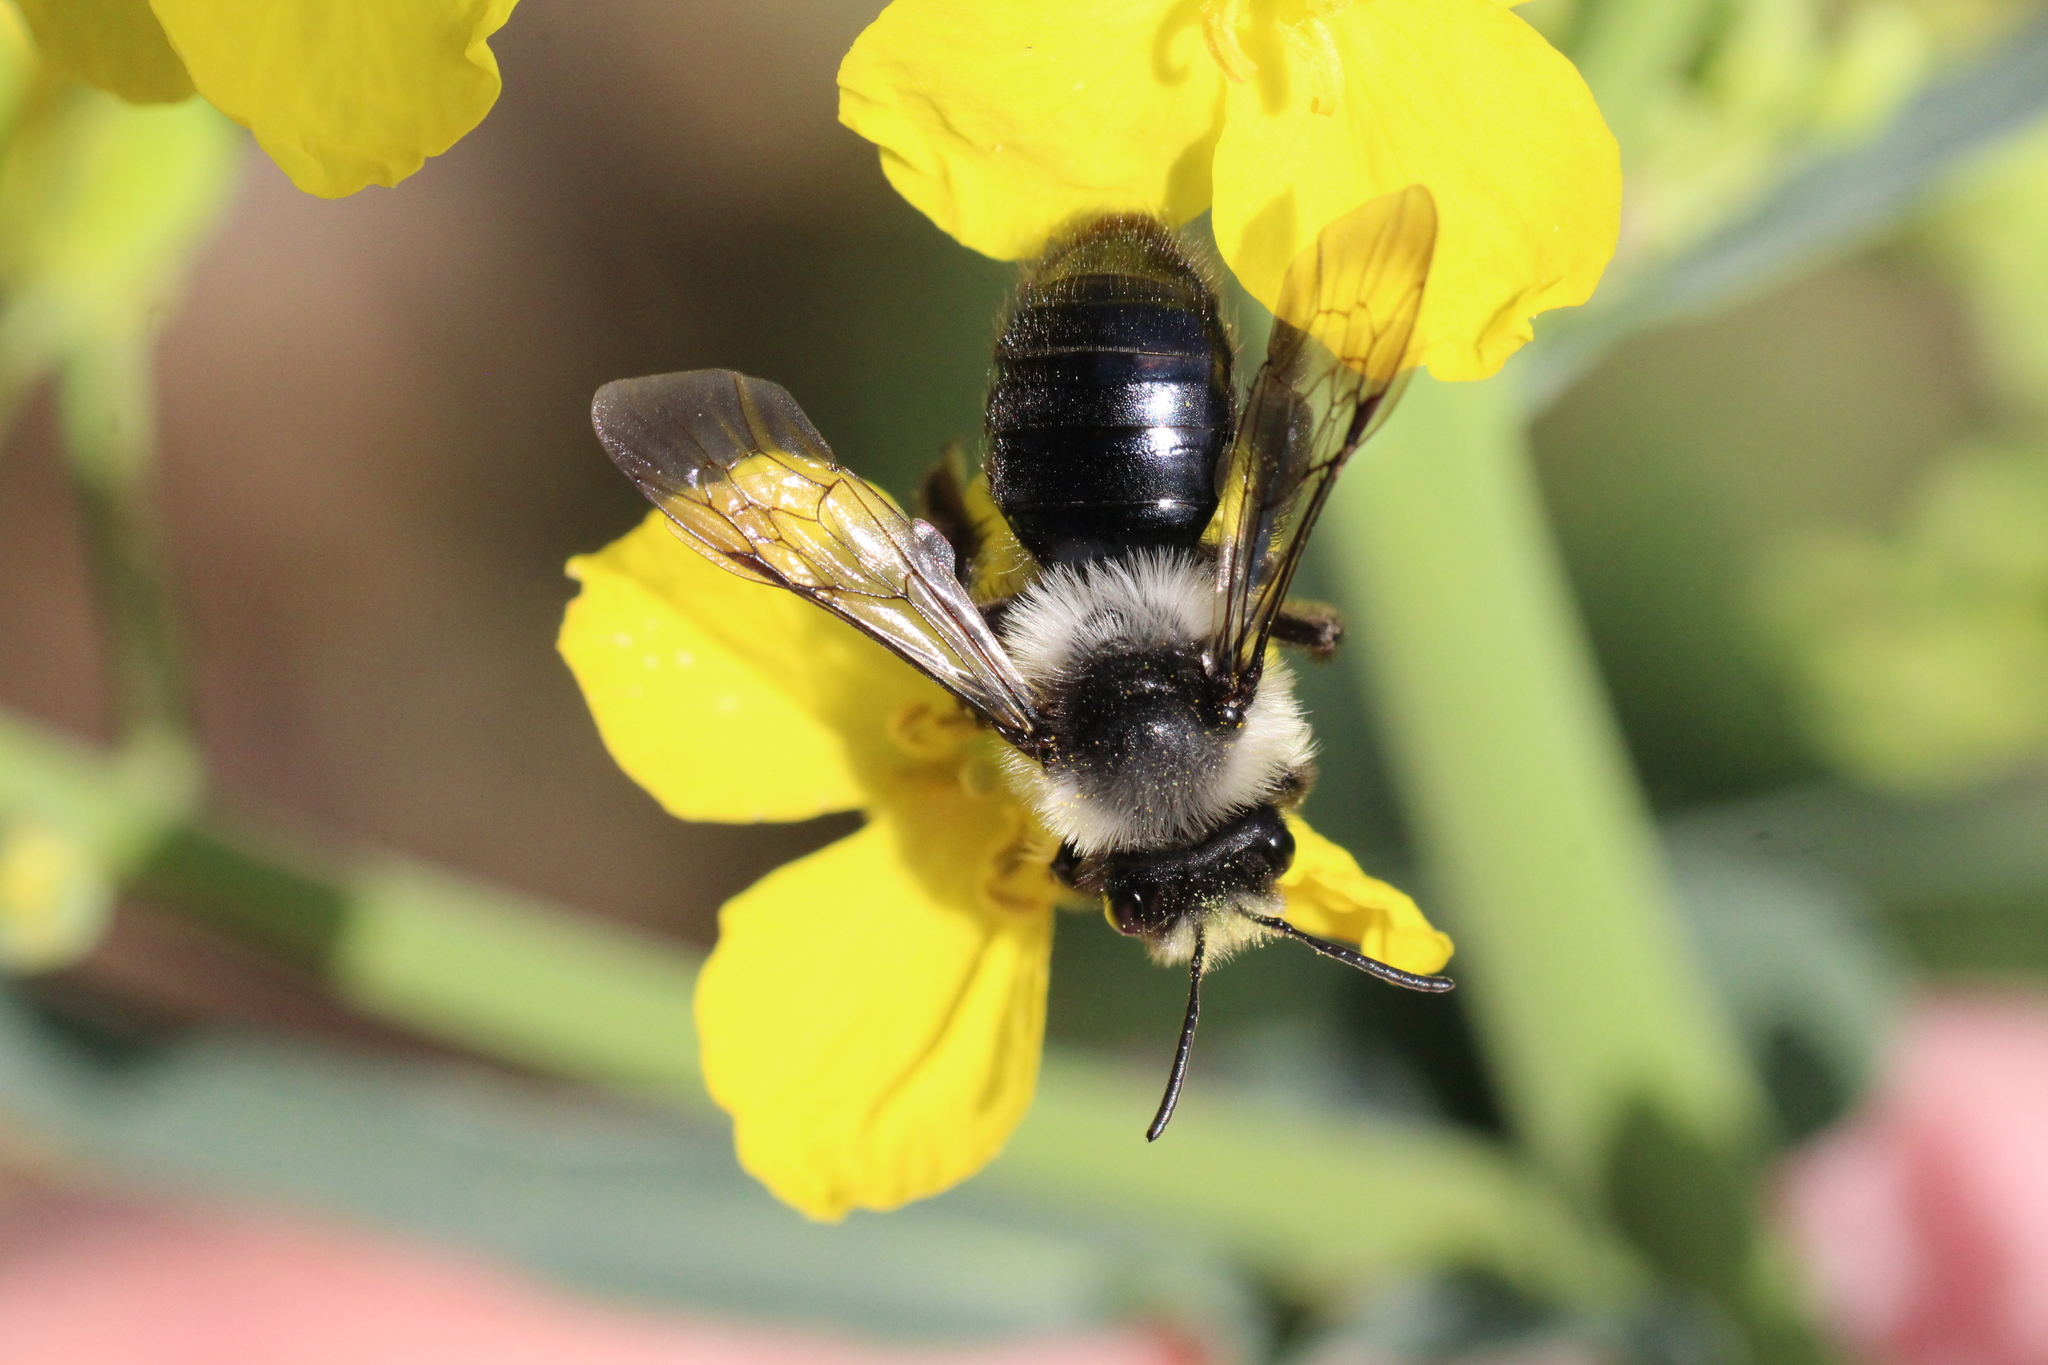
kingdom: Animalia
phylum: Arthropoda
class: Insecta
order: Hymenoptera
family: Andrenidae
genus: Andrena
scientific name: Andrena cineraria
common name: Ashy mining bee
